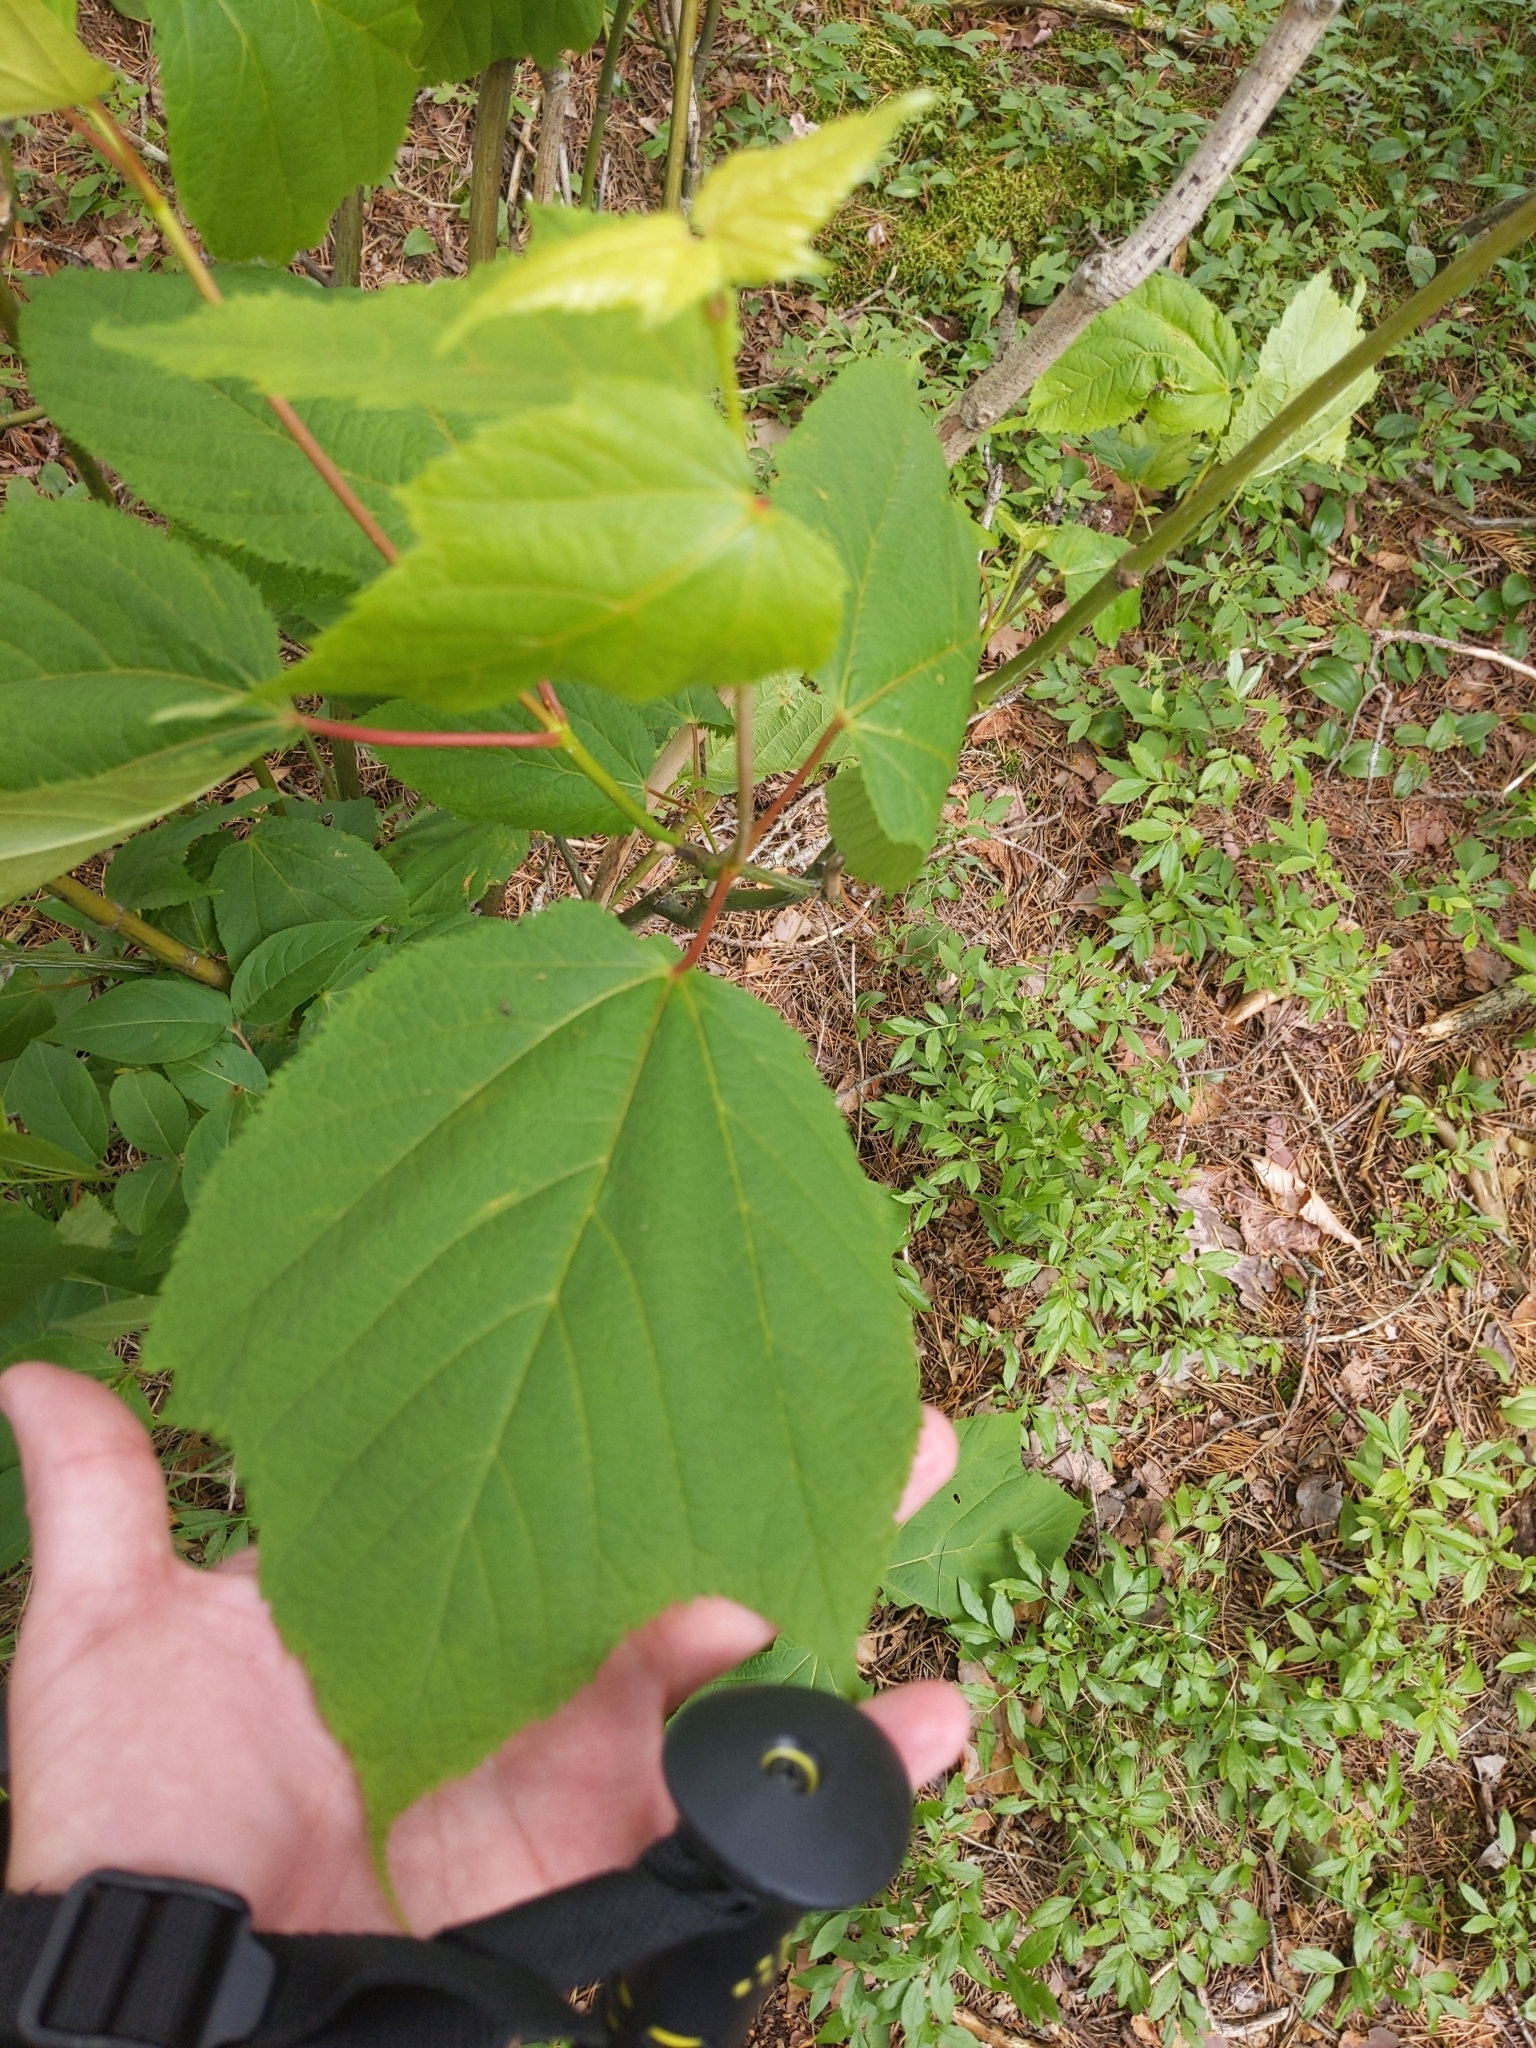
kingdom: Plantae
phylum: Tracheophyta
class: Magnoliopsida
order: Sapindales
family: Sapindaceae
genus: Acer
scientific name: Acer pensylvanicum
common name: Moosewood
